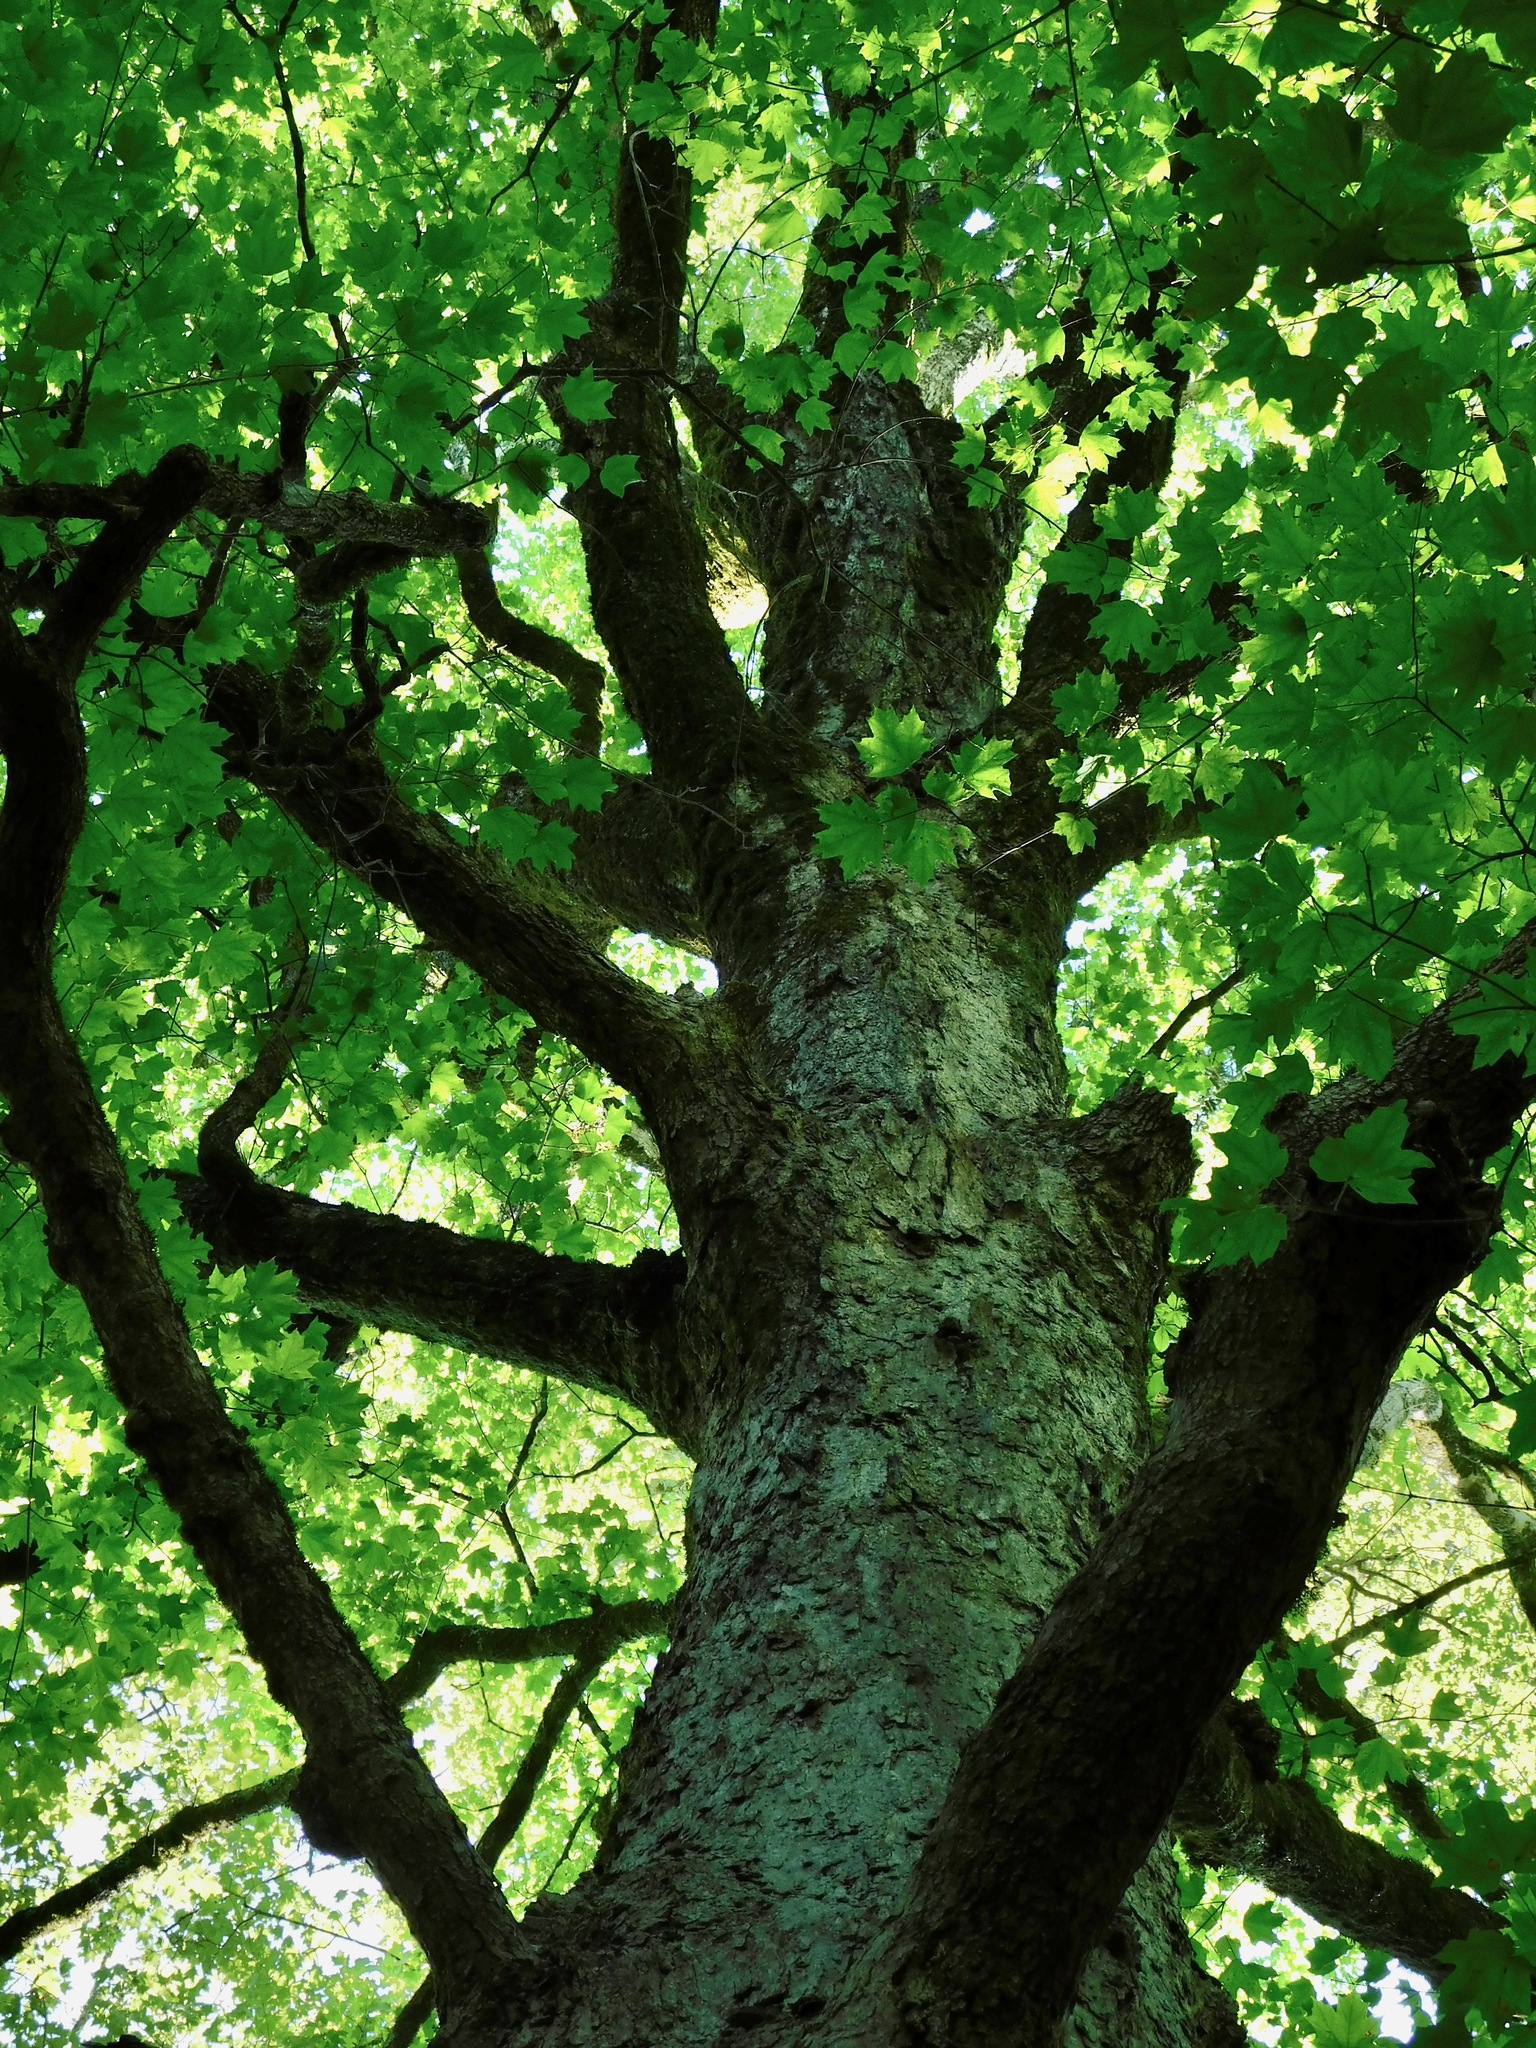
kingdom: Plantae
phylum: Tracheophyta
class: Magnoliopsida
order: Sapindales
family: Sapindaceae
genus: Acer
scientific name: Acer saccharum
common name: Sugar maple
